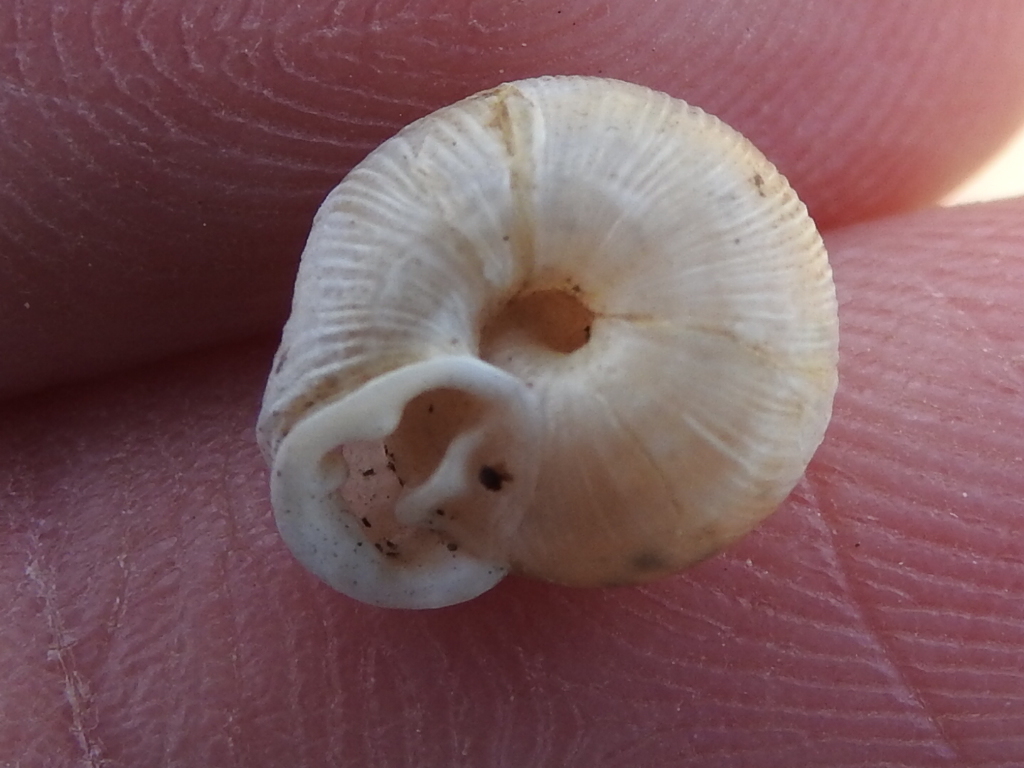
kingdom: Animalia
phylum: Mollusca
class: Gastropoda
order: Stylommatophora
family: Polygyridae
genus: Linisa
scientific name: Linisa texasiana
